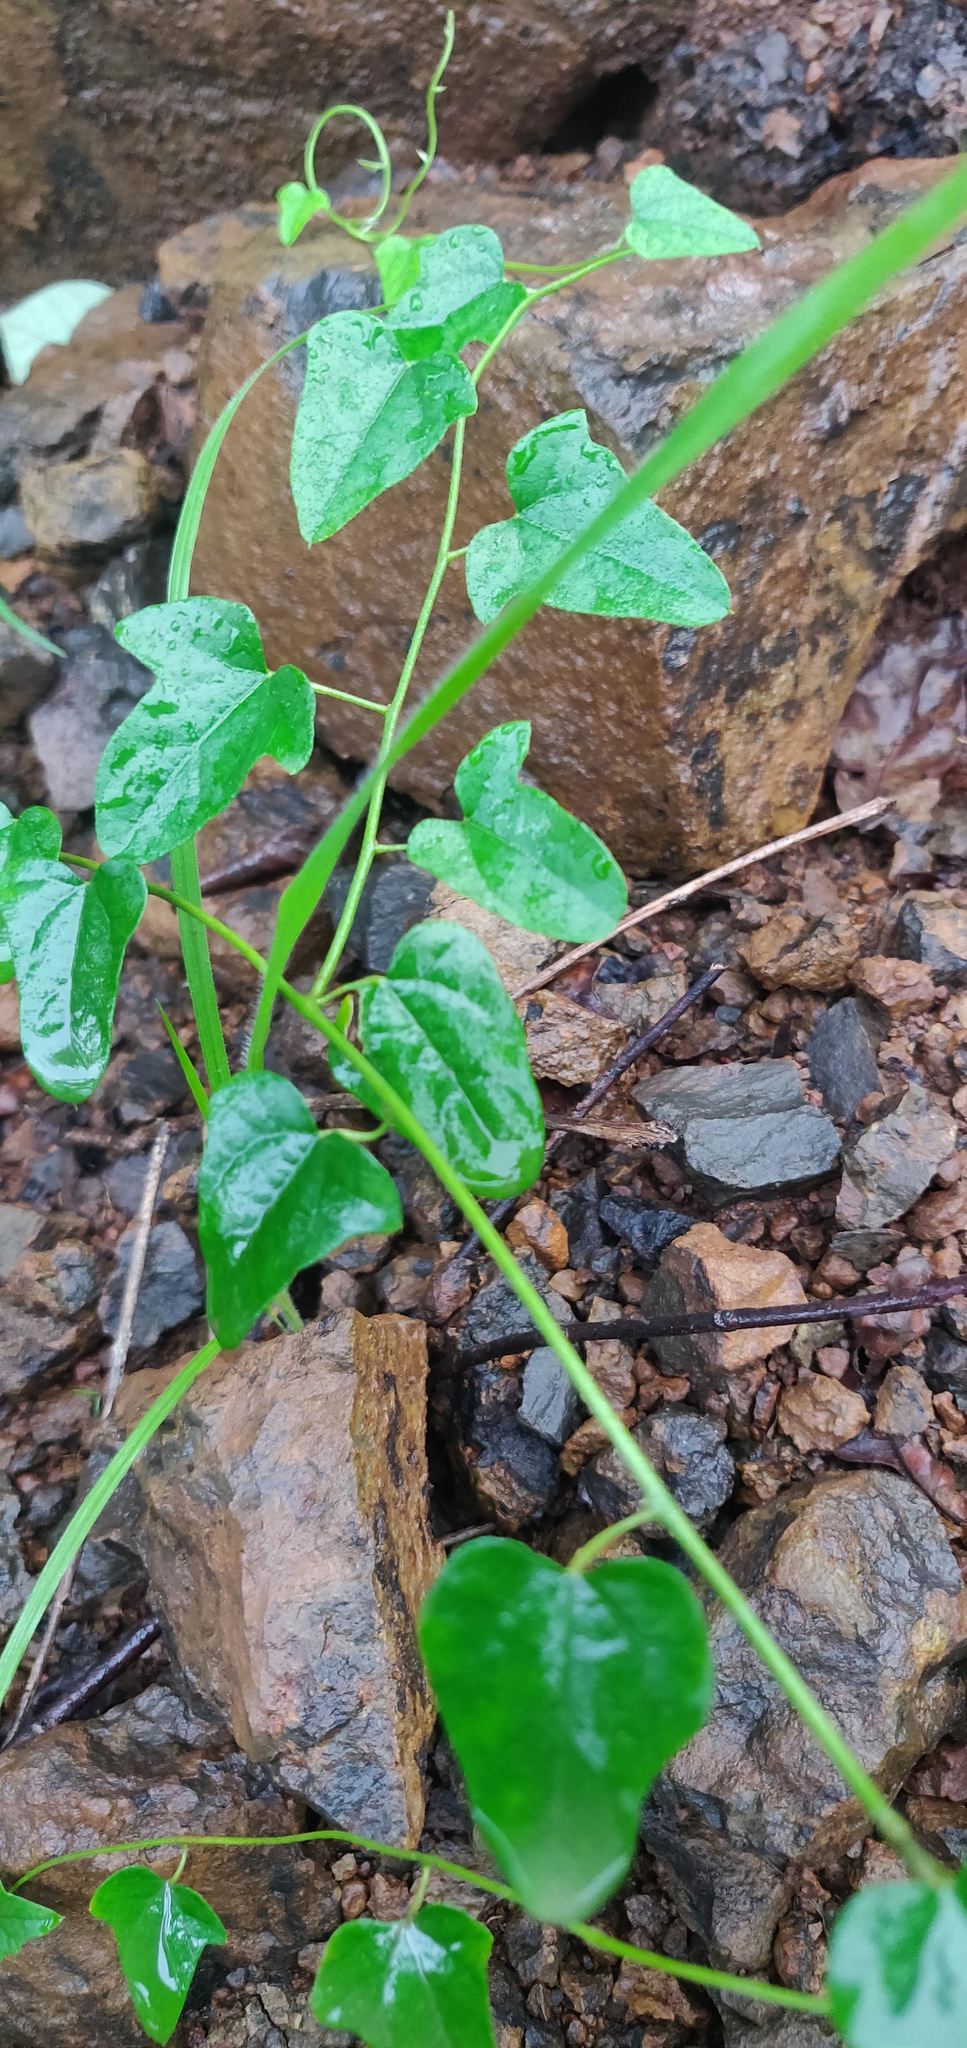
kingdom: Plantae
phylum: Tracheophyta
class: Magnoliopsida
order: Ranunculales
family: Menispermaceae
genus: Cocculus
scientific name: Cocculus hirsutus
